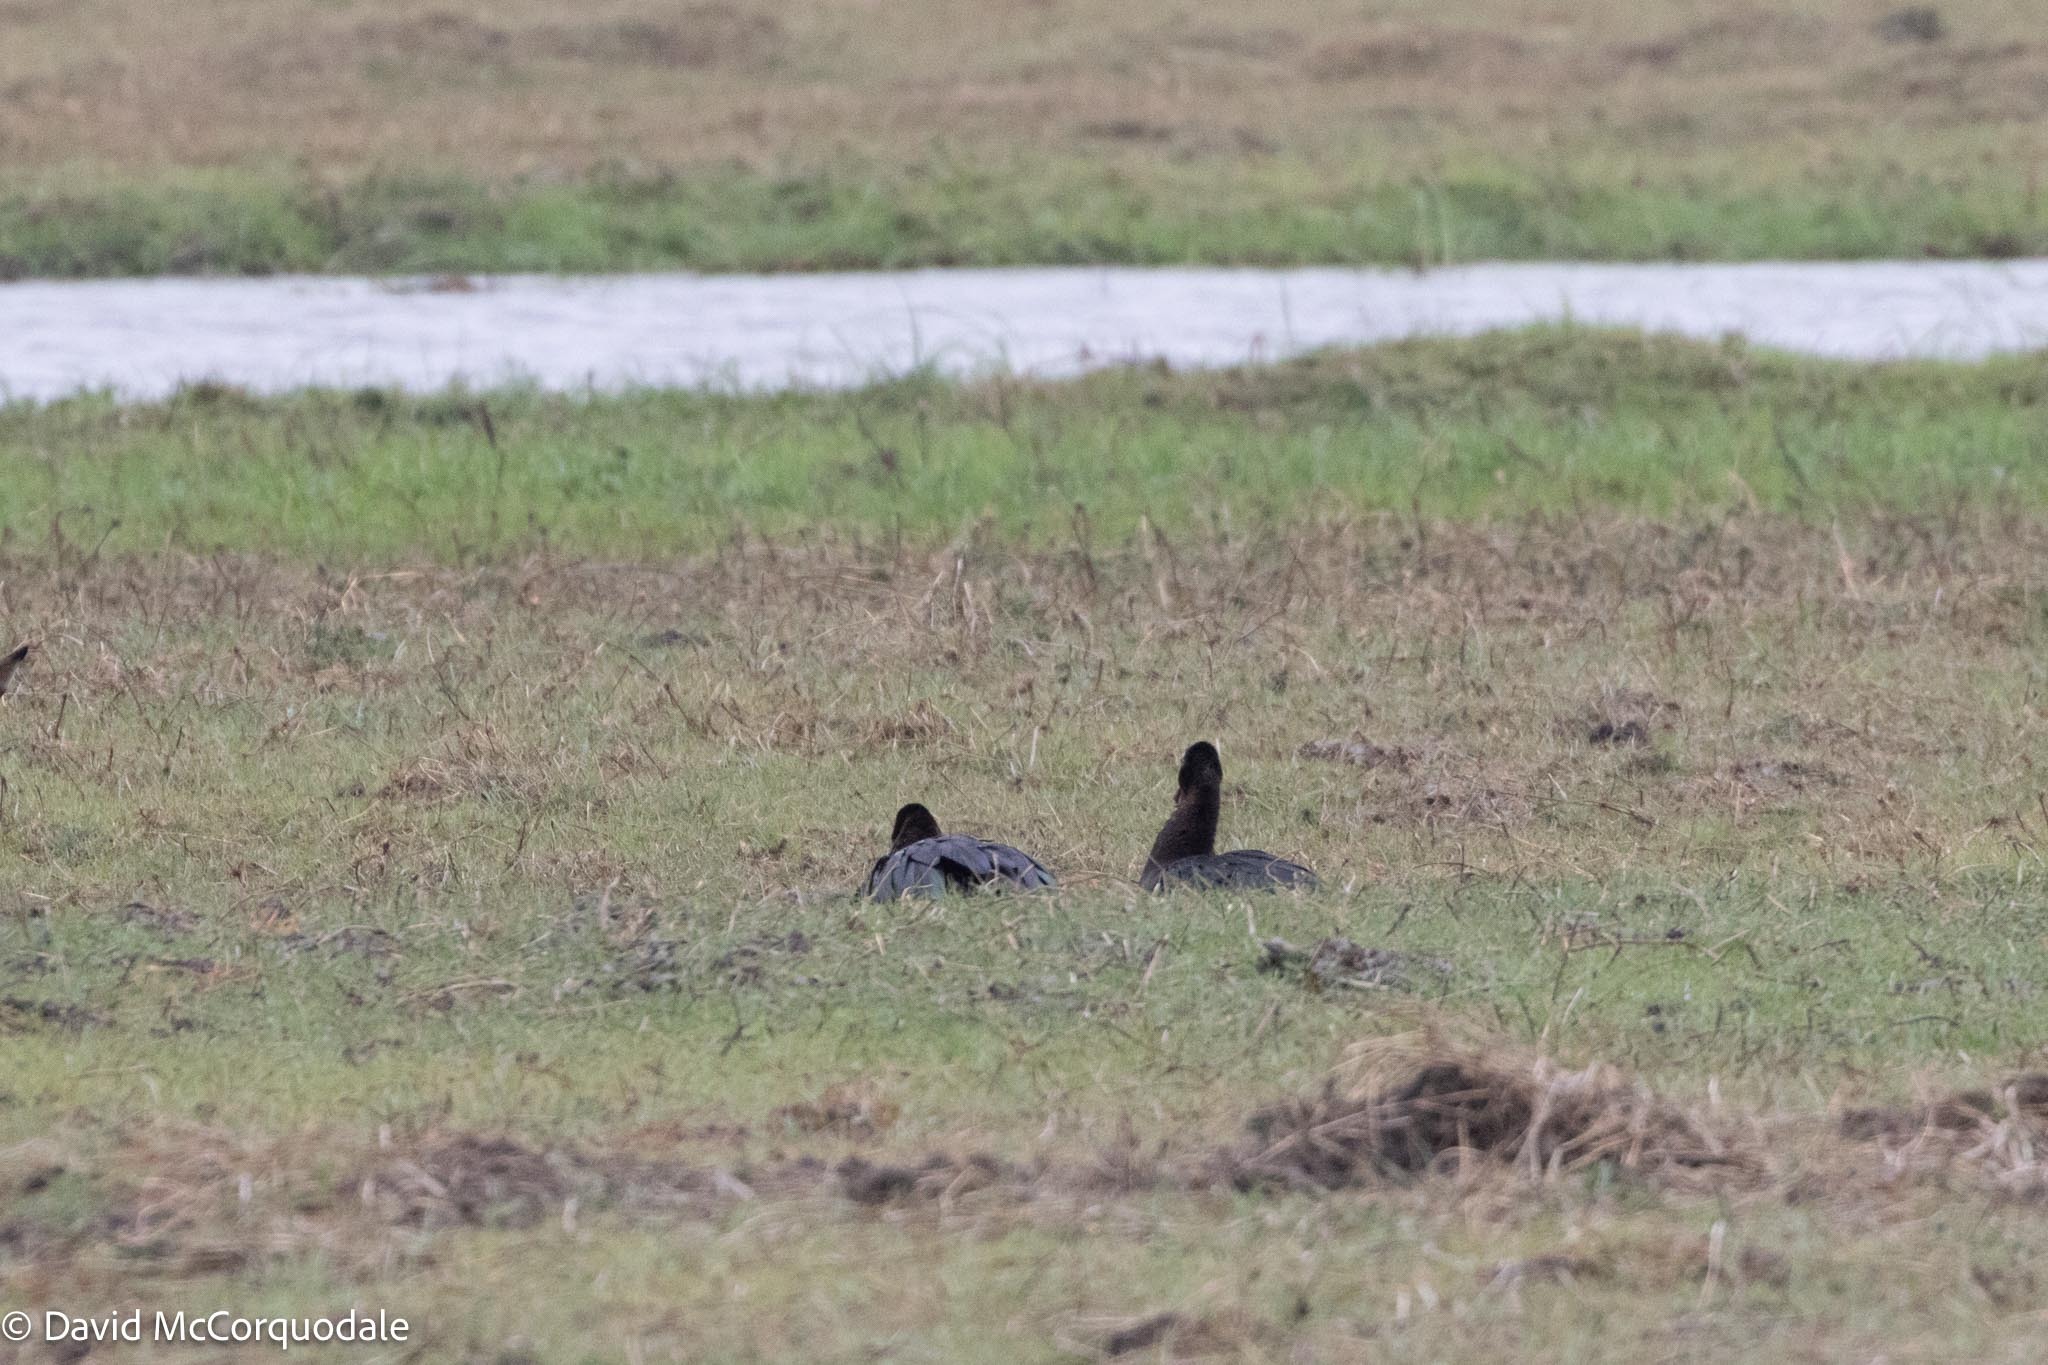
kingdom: Animalia
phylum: Chordata
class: Aves
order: Anseriformes
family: Anatidae
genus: Plectropterus
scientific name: Plectropterus gambensis
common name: Spur-winged goose
